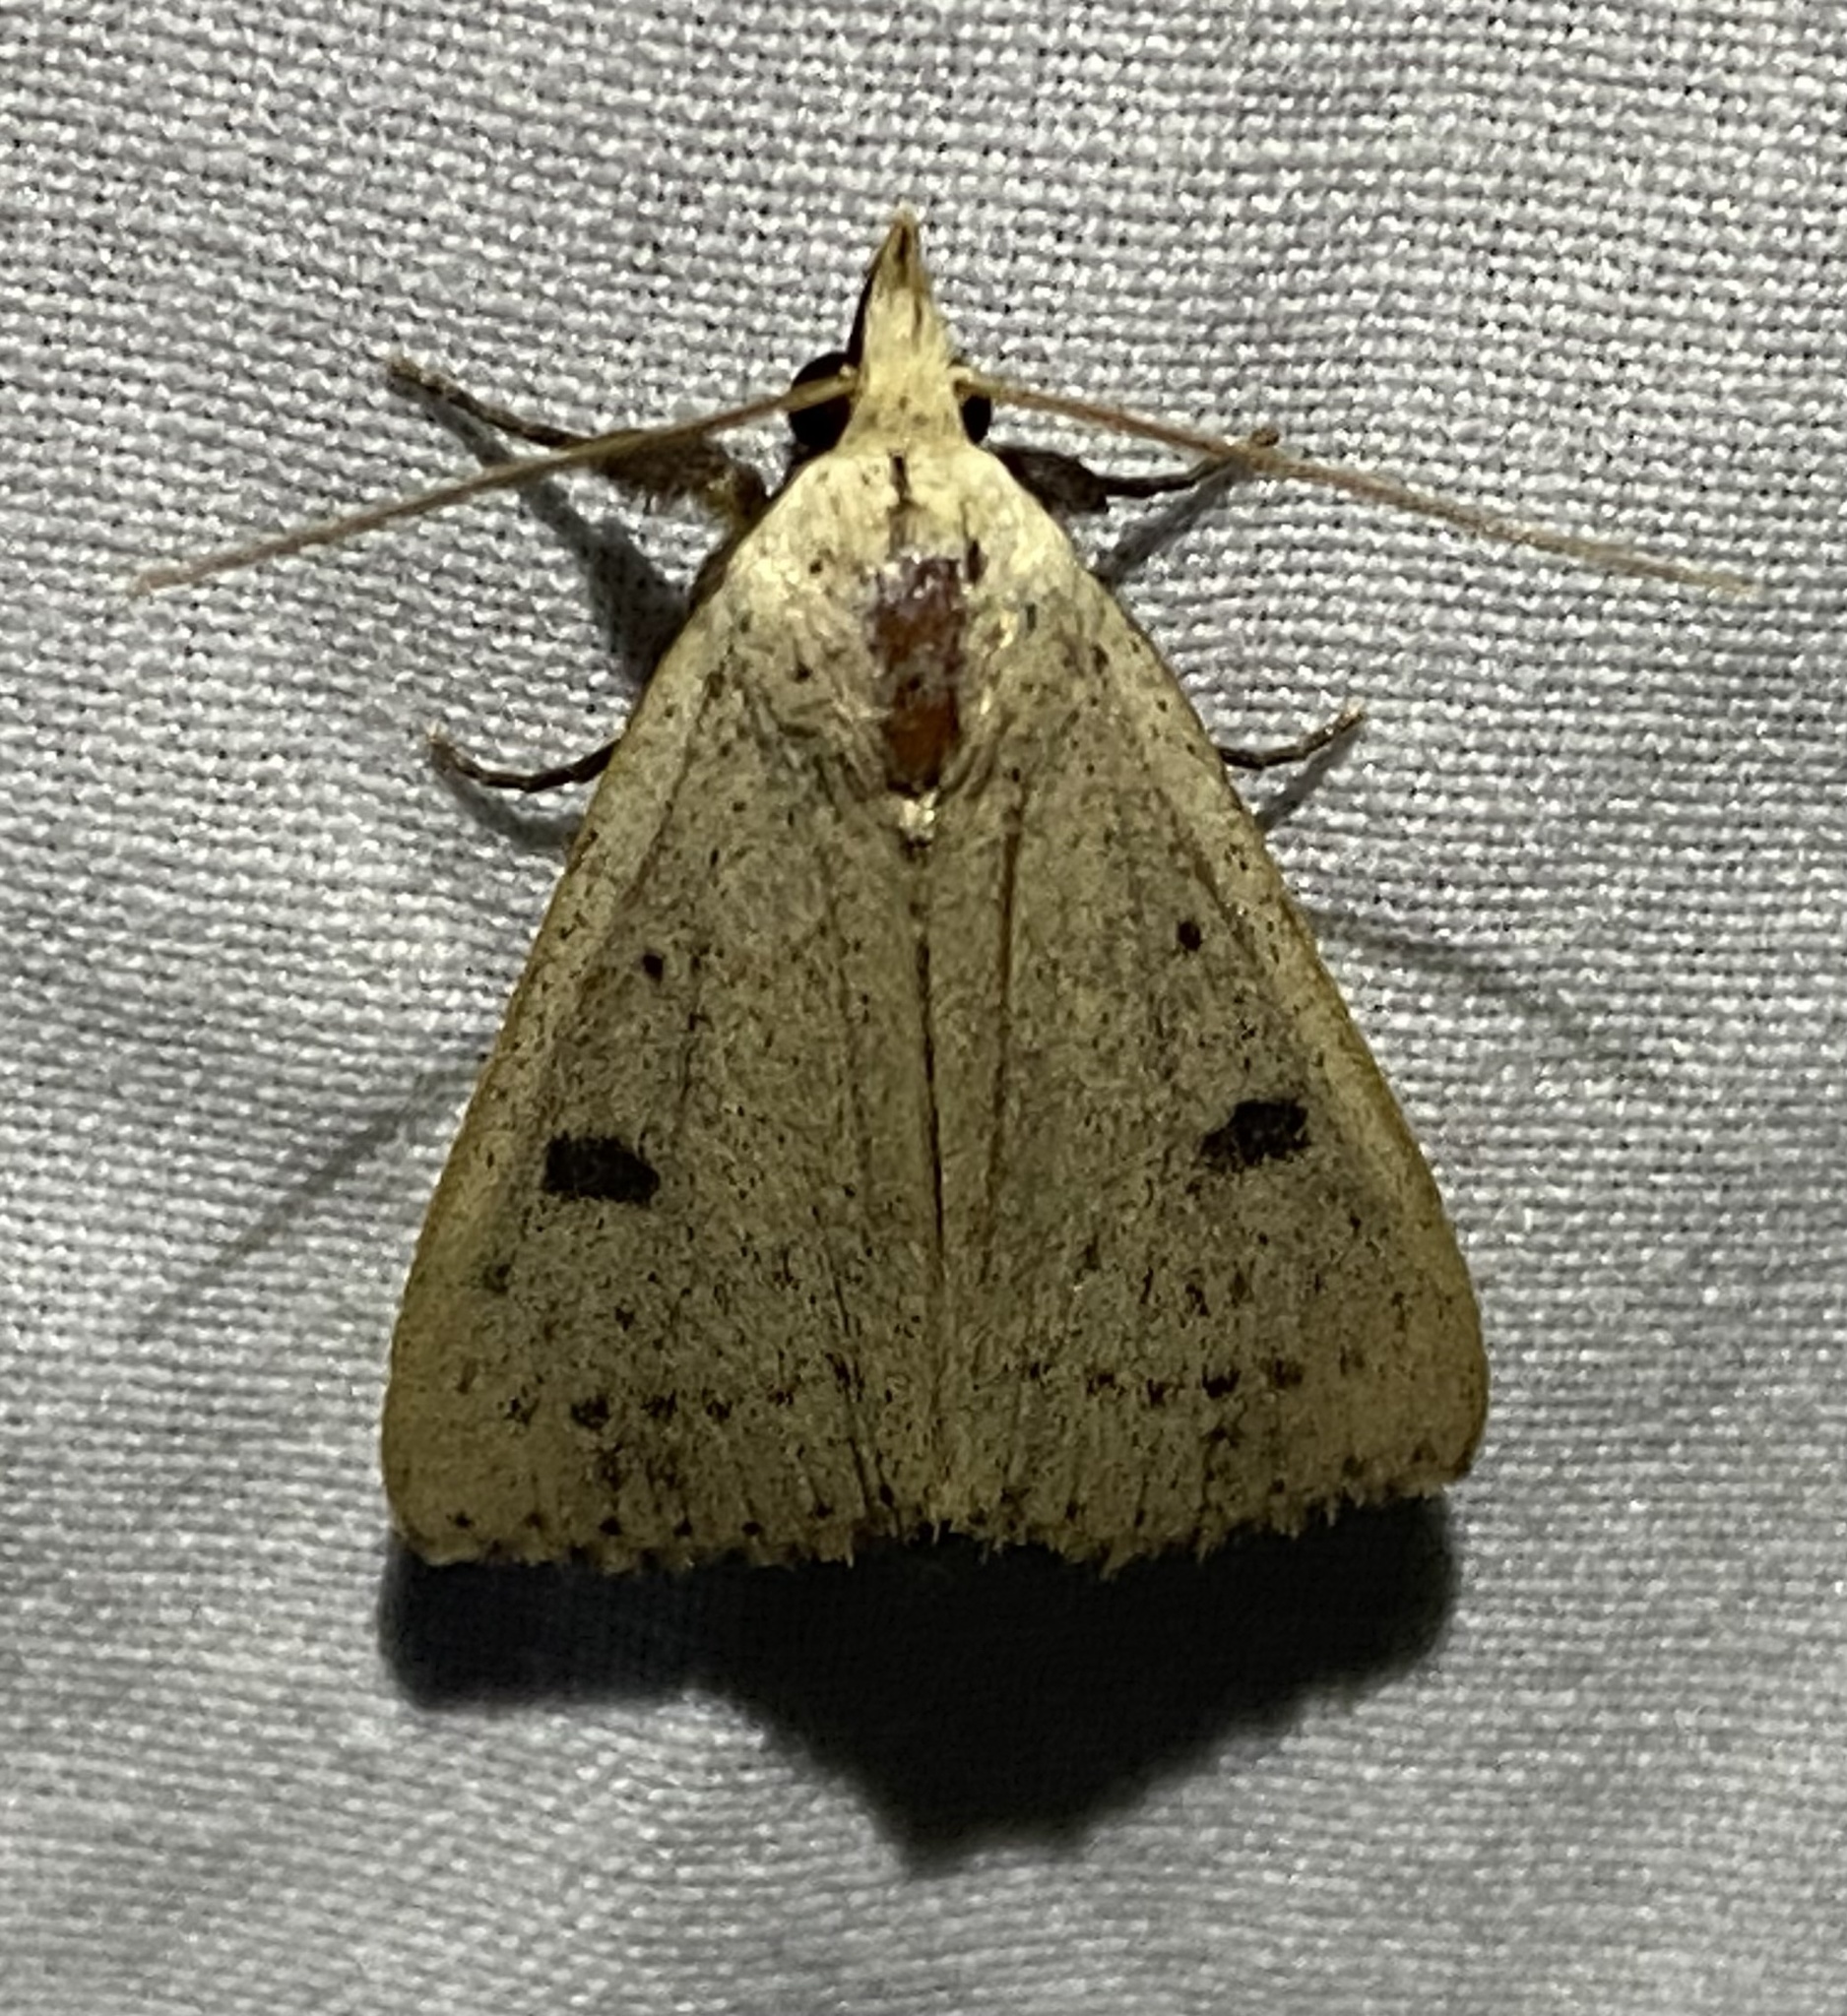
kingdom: Animalia
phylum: Arthropoda
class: Insecta
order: Lepidoptera
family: Erebidae
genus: Scolecocampa
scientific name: Scolecocampa liburna
